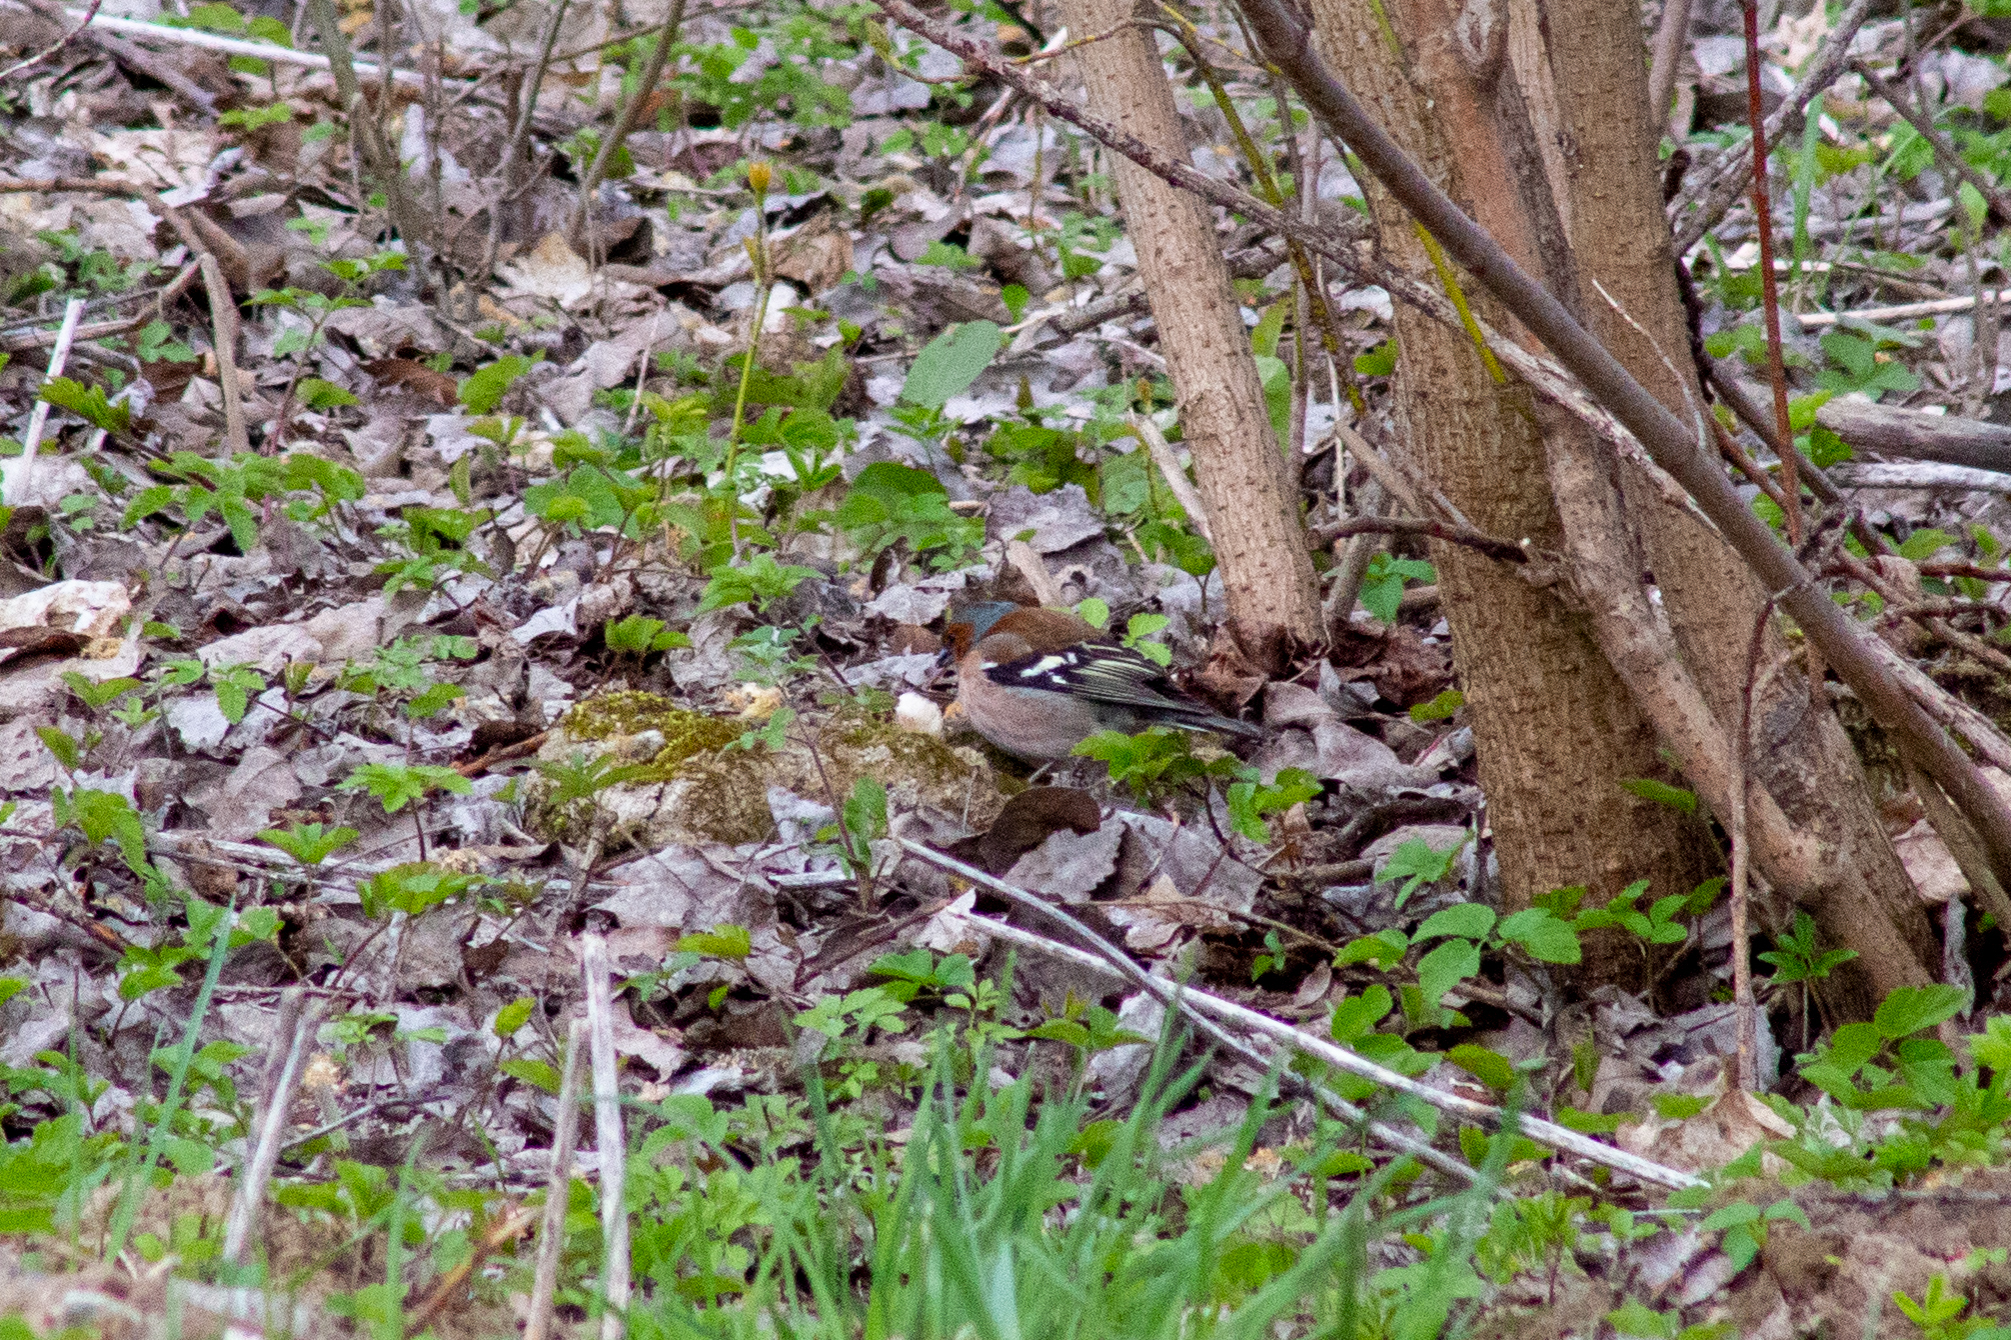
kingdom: Animalia
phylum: Chordata
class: Aves
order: Passeriformes
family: Fringillidae
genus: Fringilla
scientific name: Fringilla coelebs
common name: Common chaffinch
